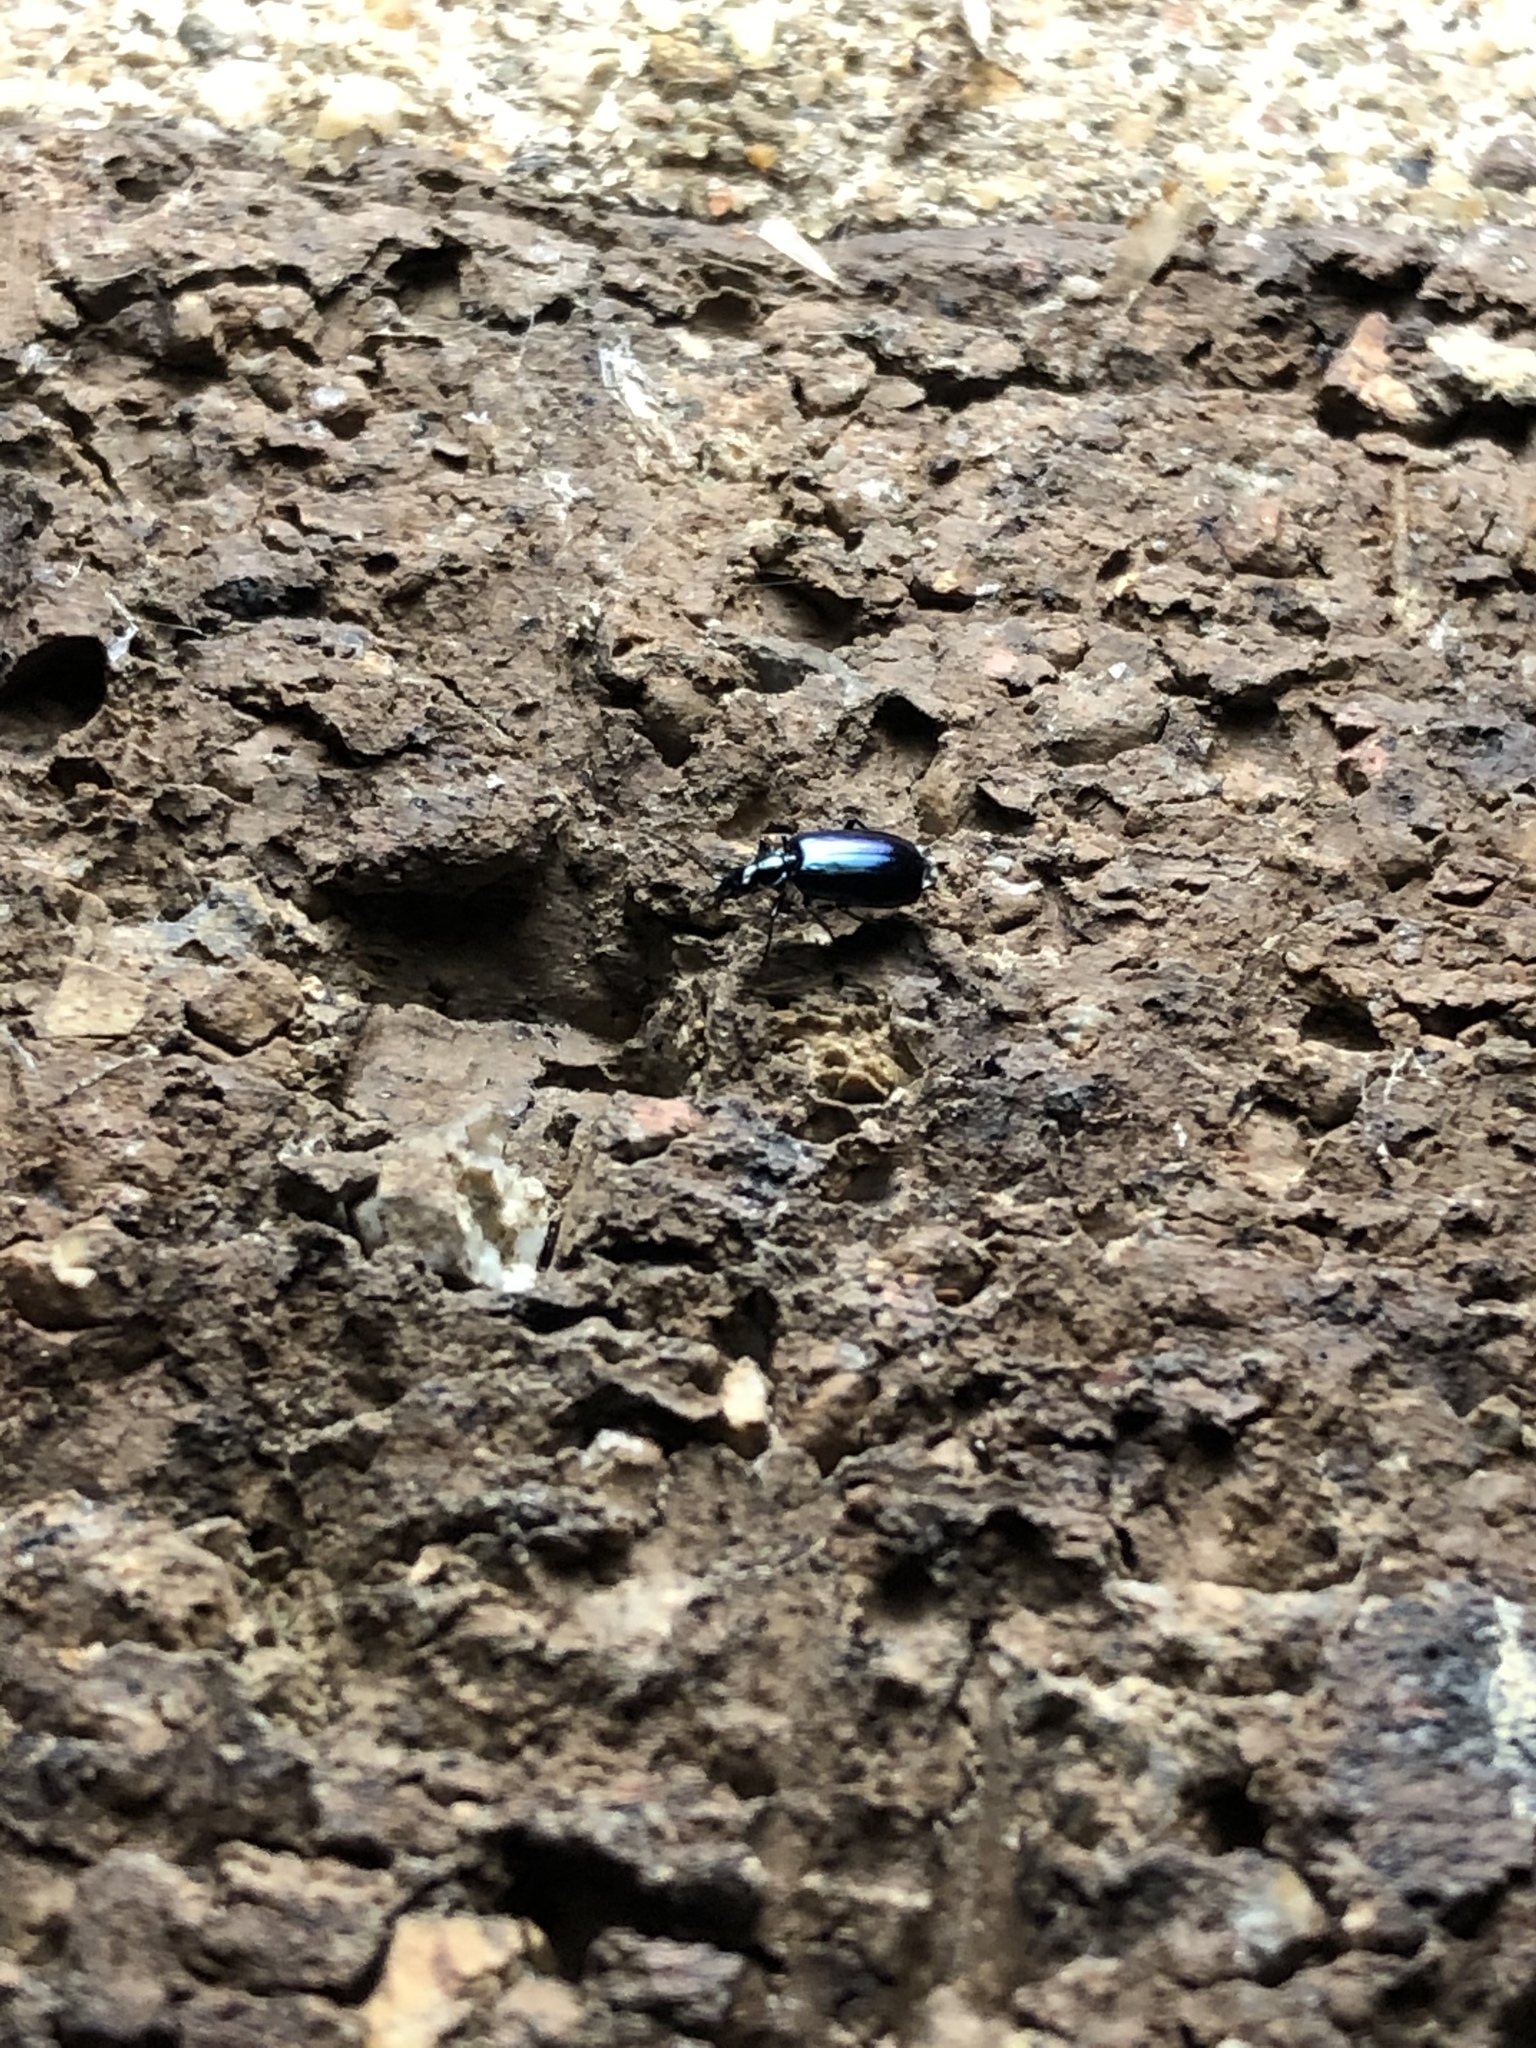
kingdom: Animalia
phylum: Arthropoda
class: Insecta
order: Coleoptera
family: Carabidae
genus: Lebia
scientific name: Lebia viridis
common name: Flower lebia beetle
